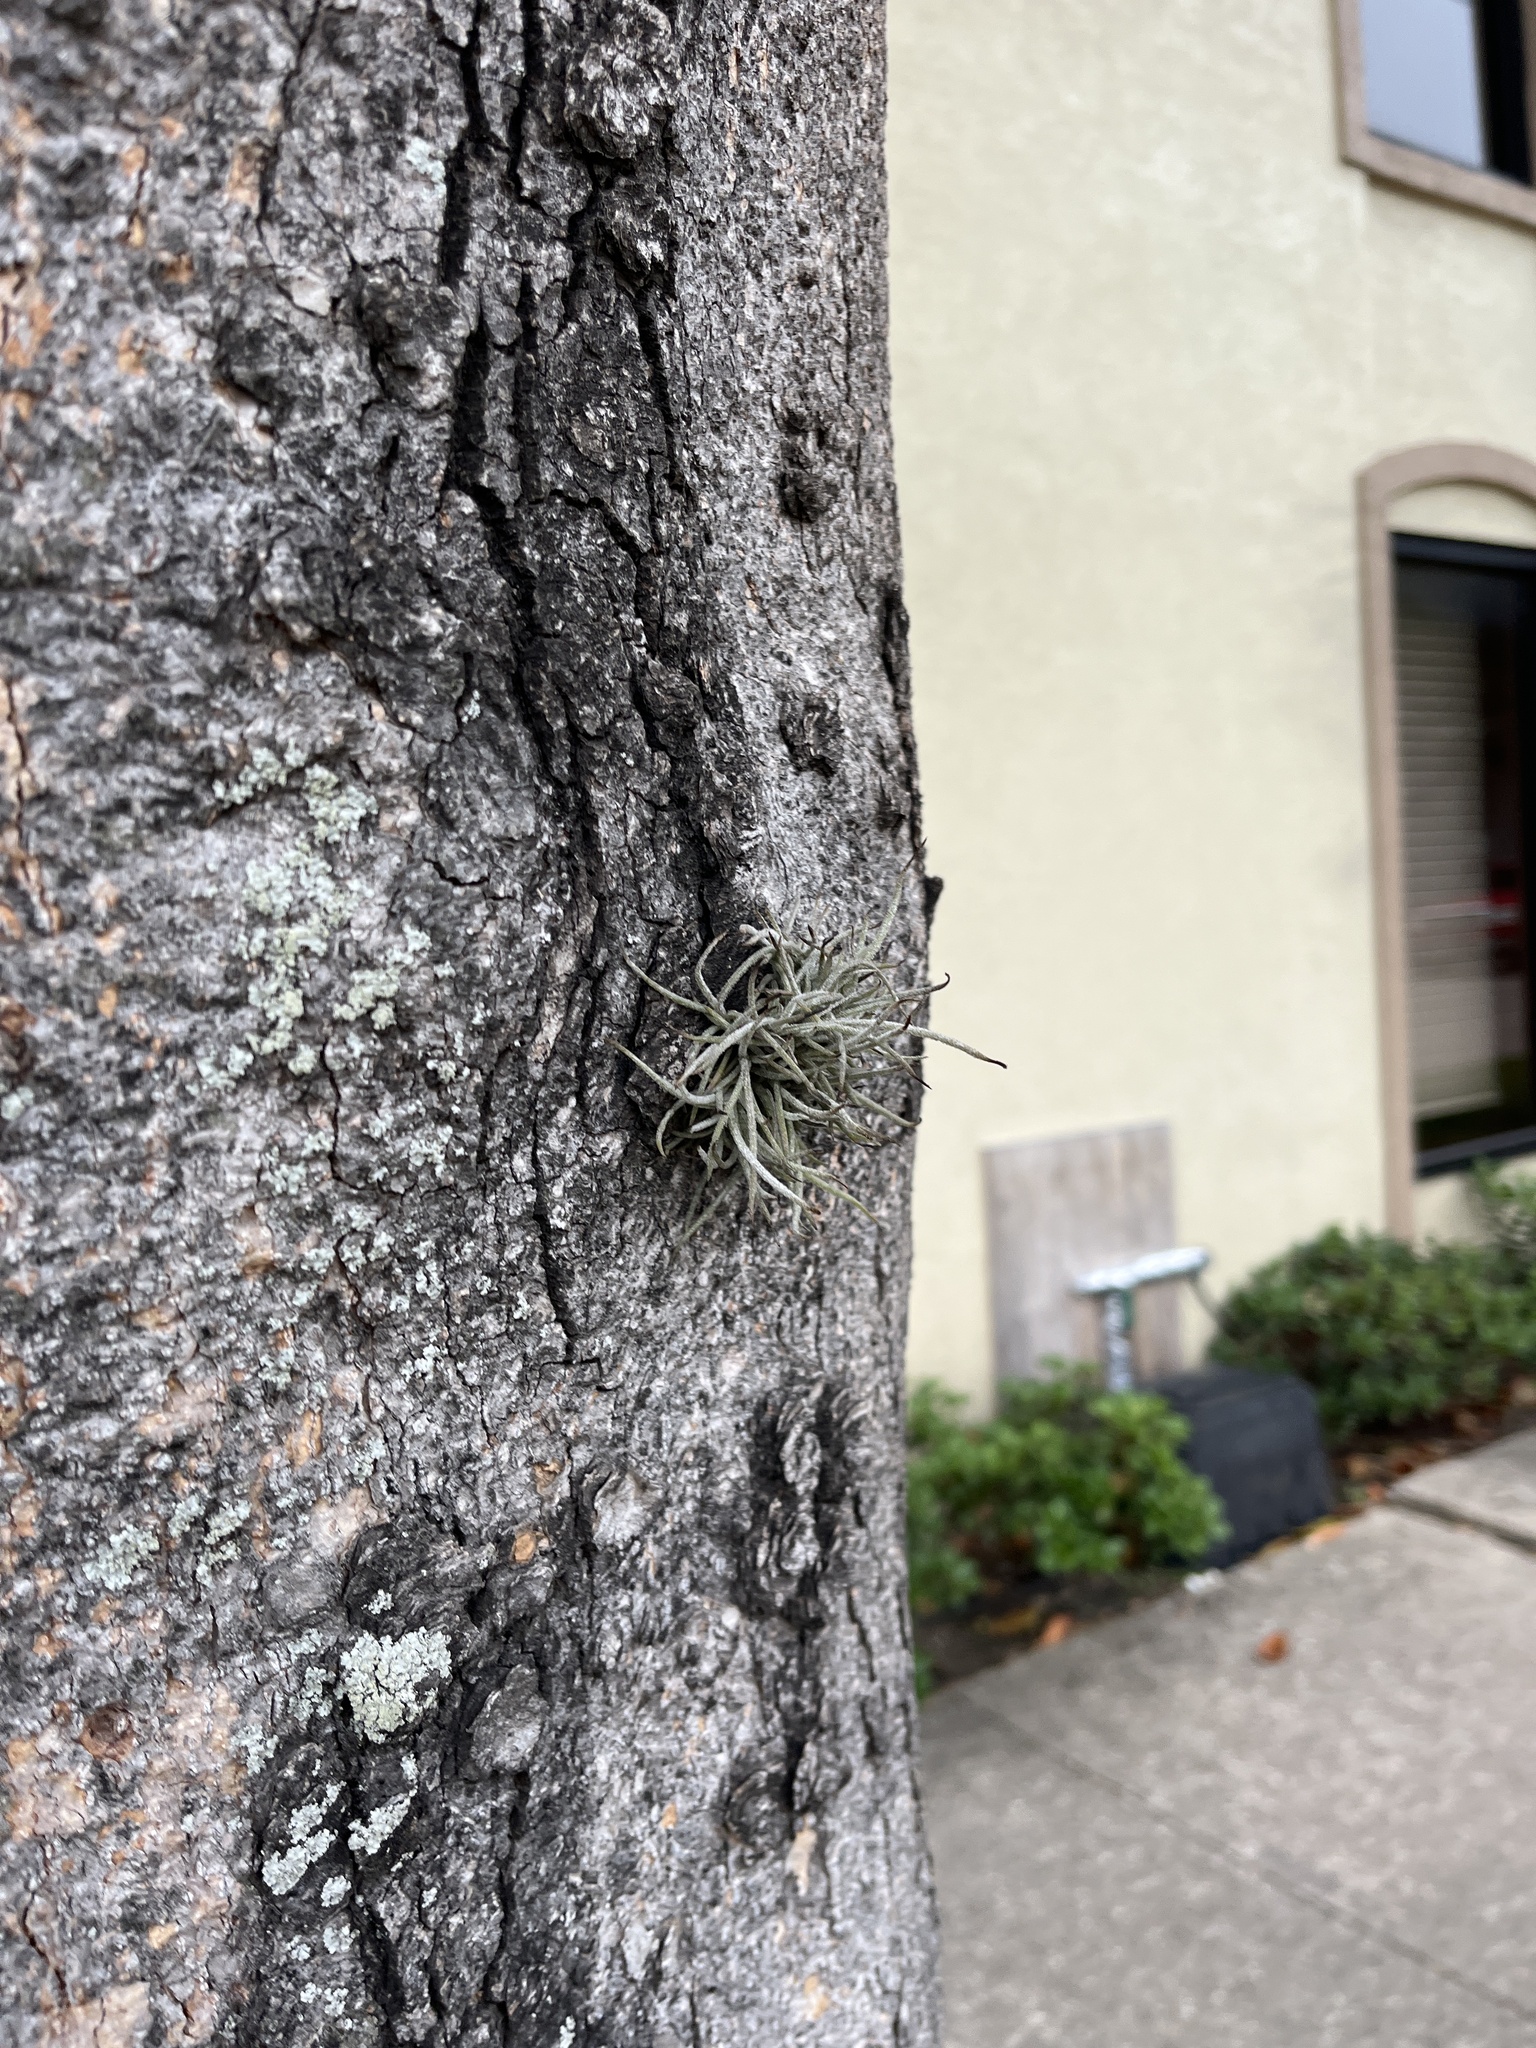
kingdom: Plantae
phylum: Tracheophyta
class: Liliopsida
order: Poales
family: Bromeliaceae
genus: Tillandsia
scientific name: Tillandsia recurvata
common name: Small ballmoss
